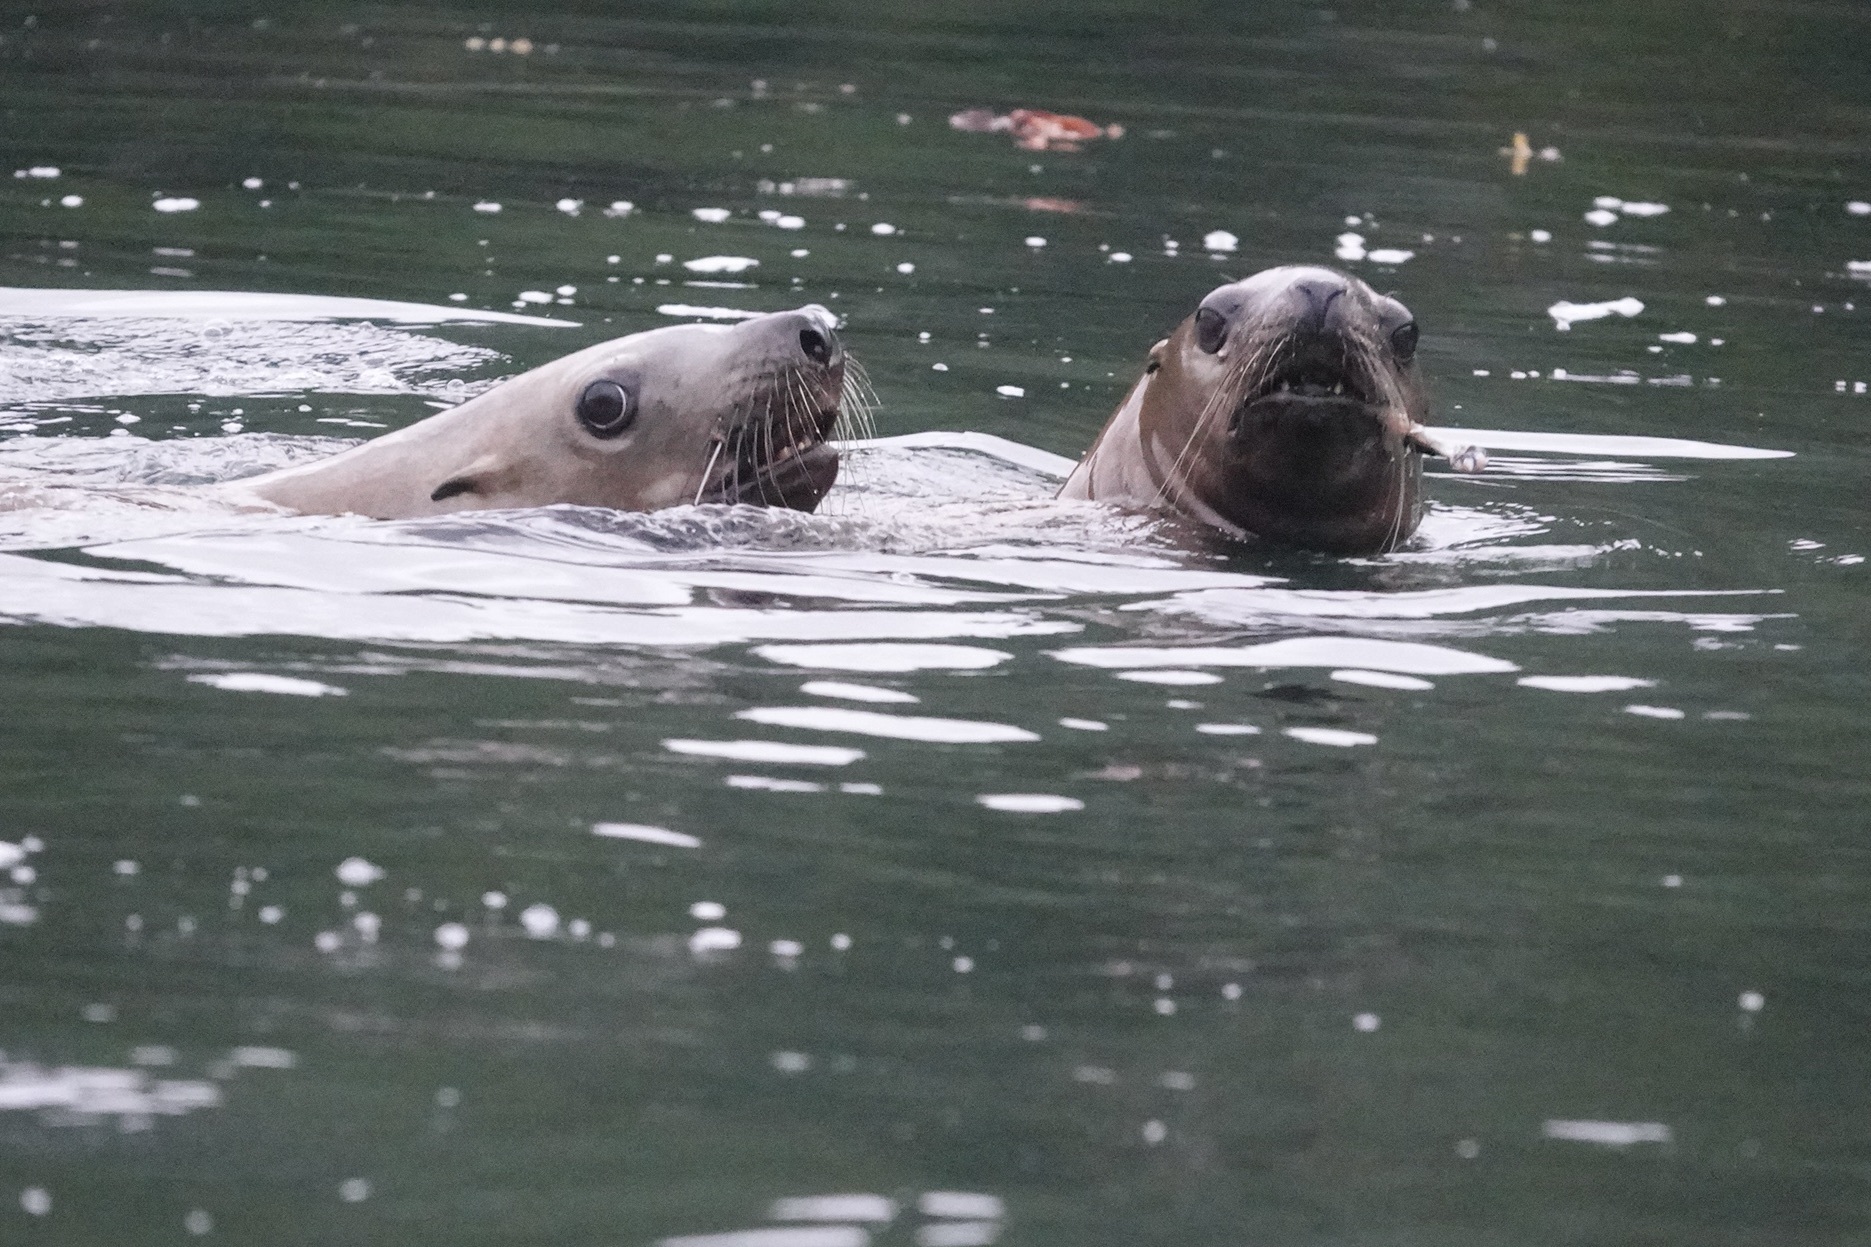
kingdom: Animalia
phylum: Chordata
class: Mammalia
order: Carnivora
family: Otariidae
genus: Eumetopias
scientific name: Eumetopias jubatus
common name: Steller sea lion
